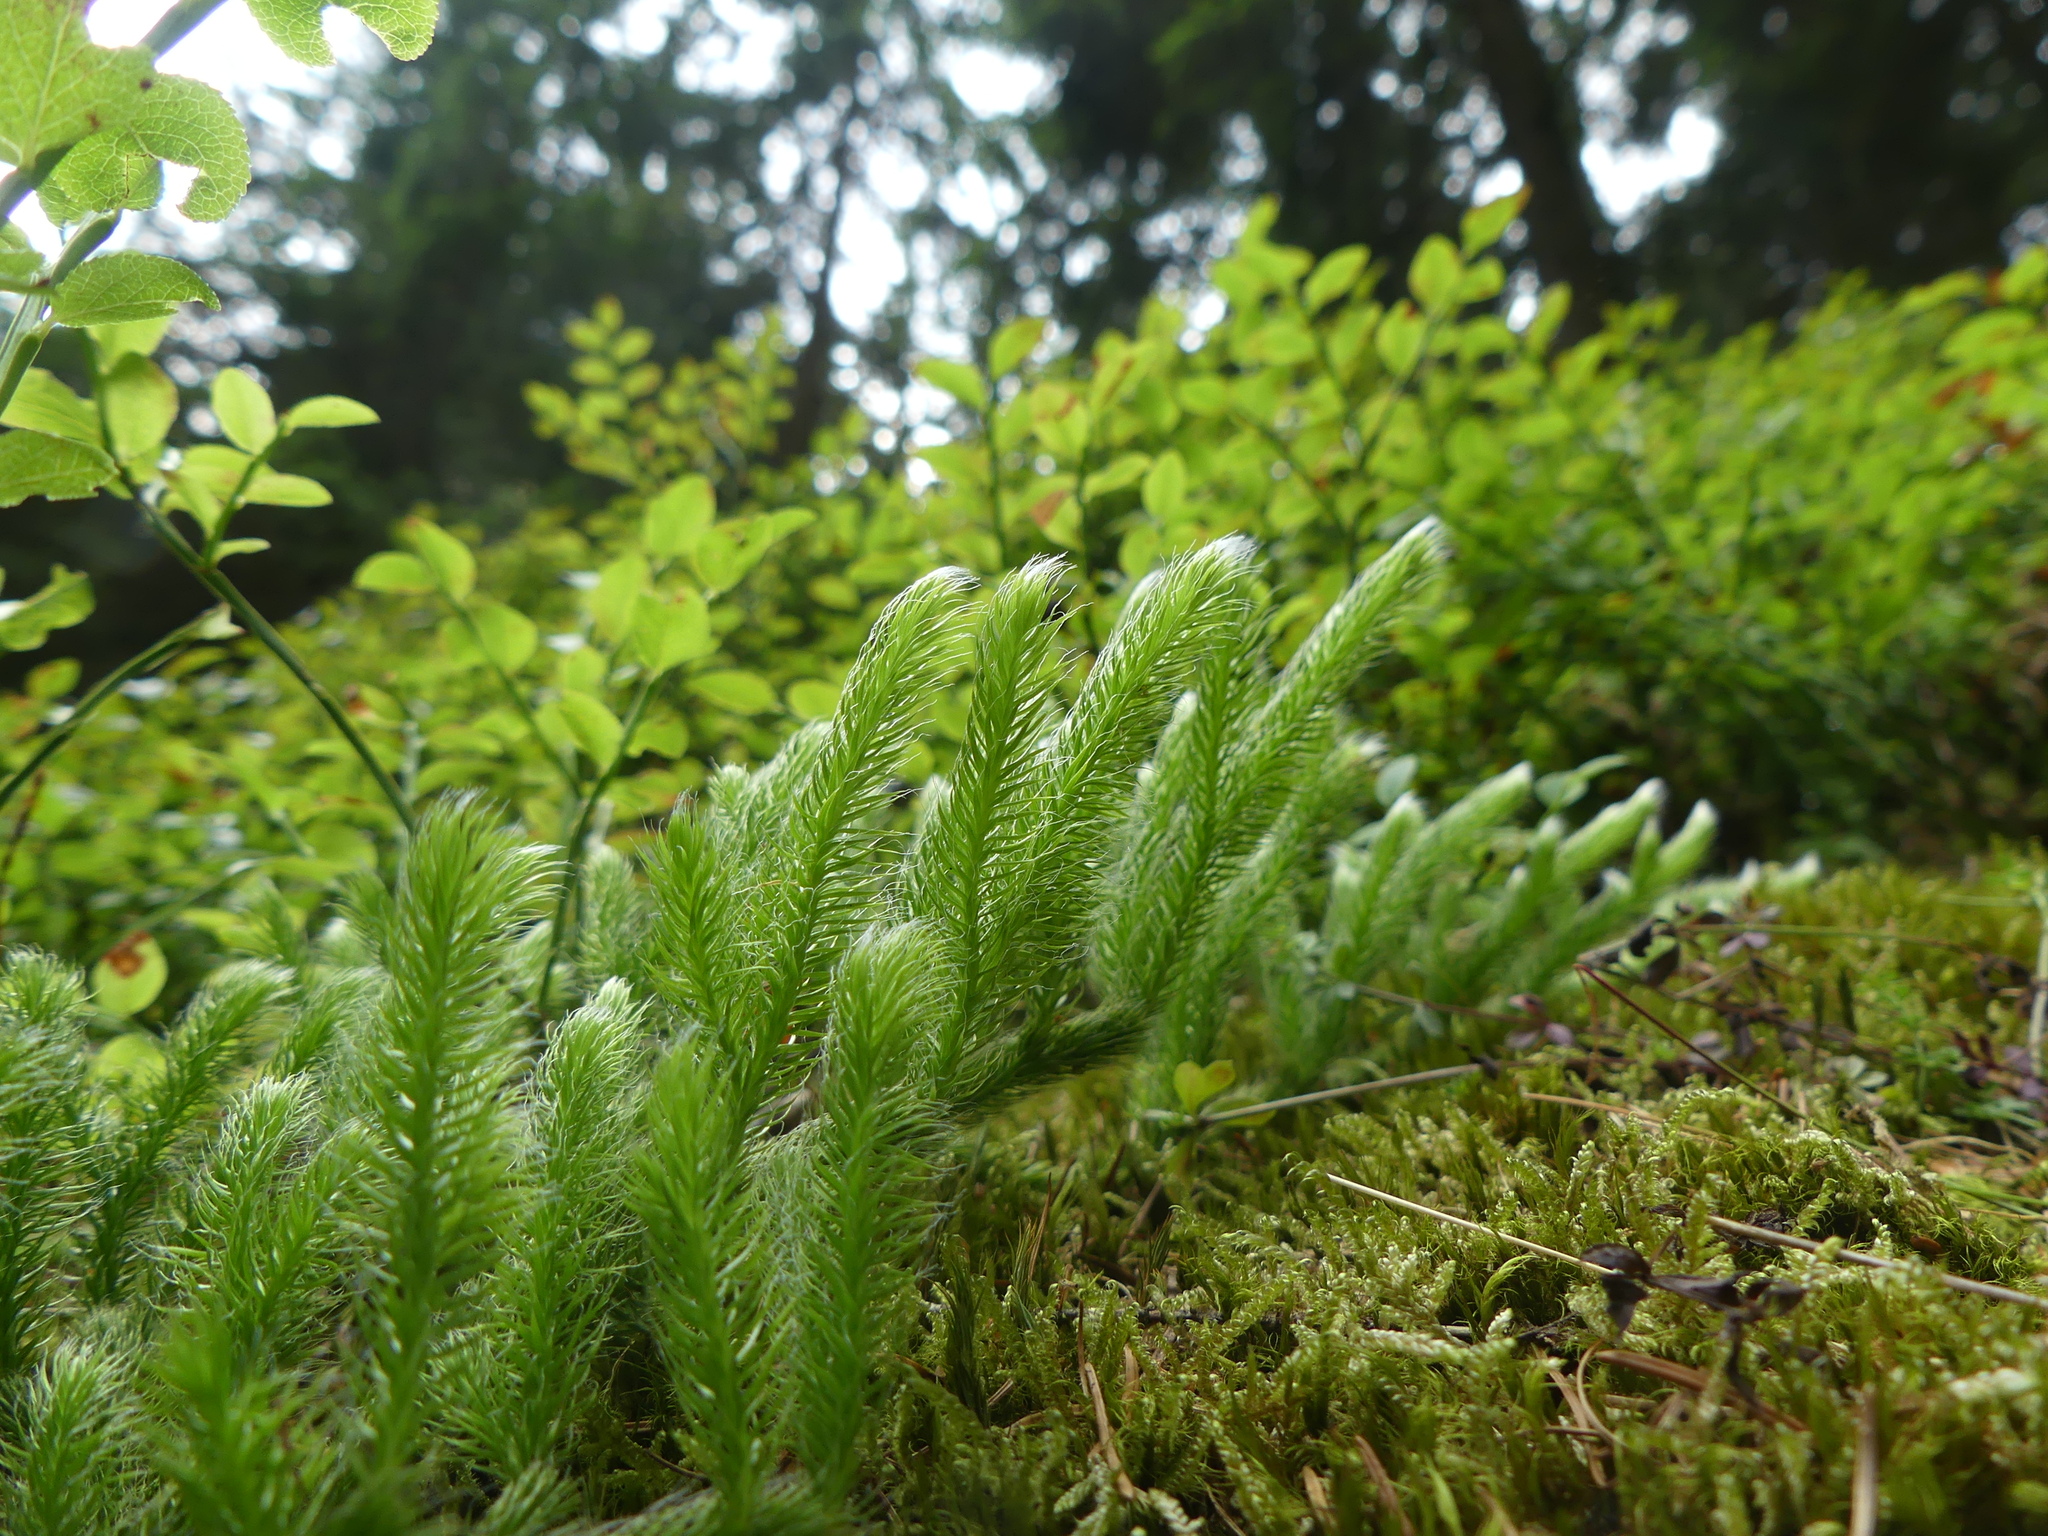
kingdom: Plantae
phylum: Tracheophyta
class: Lycopodiopsida
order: Lycopodiales
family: Lycopodiaceae
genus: Lycopodium
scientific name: Lycopodium clavatum
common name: Stag's-horn clubmoss
